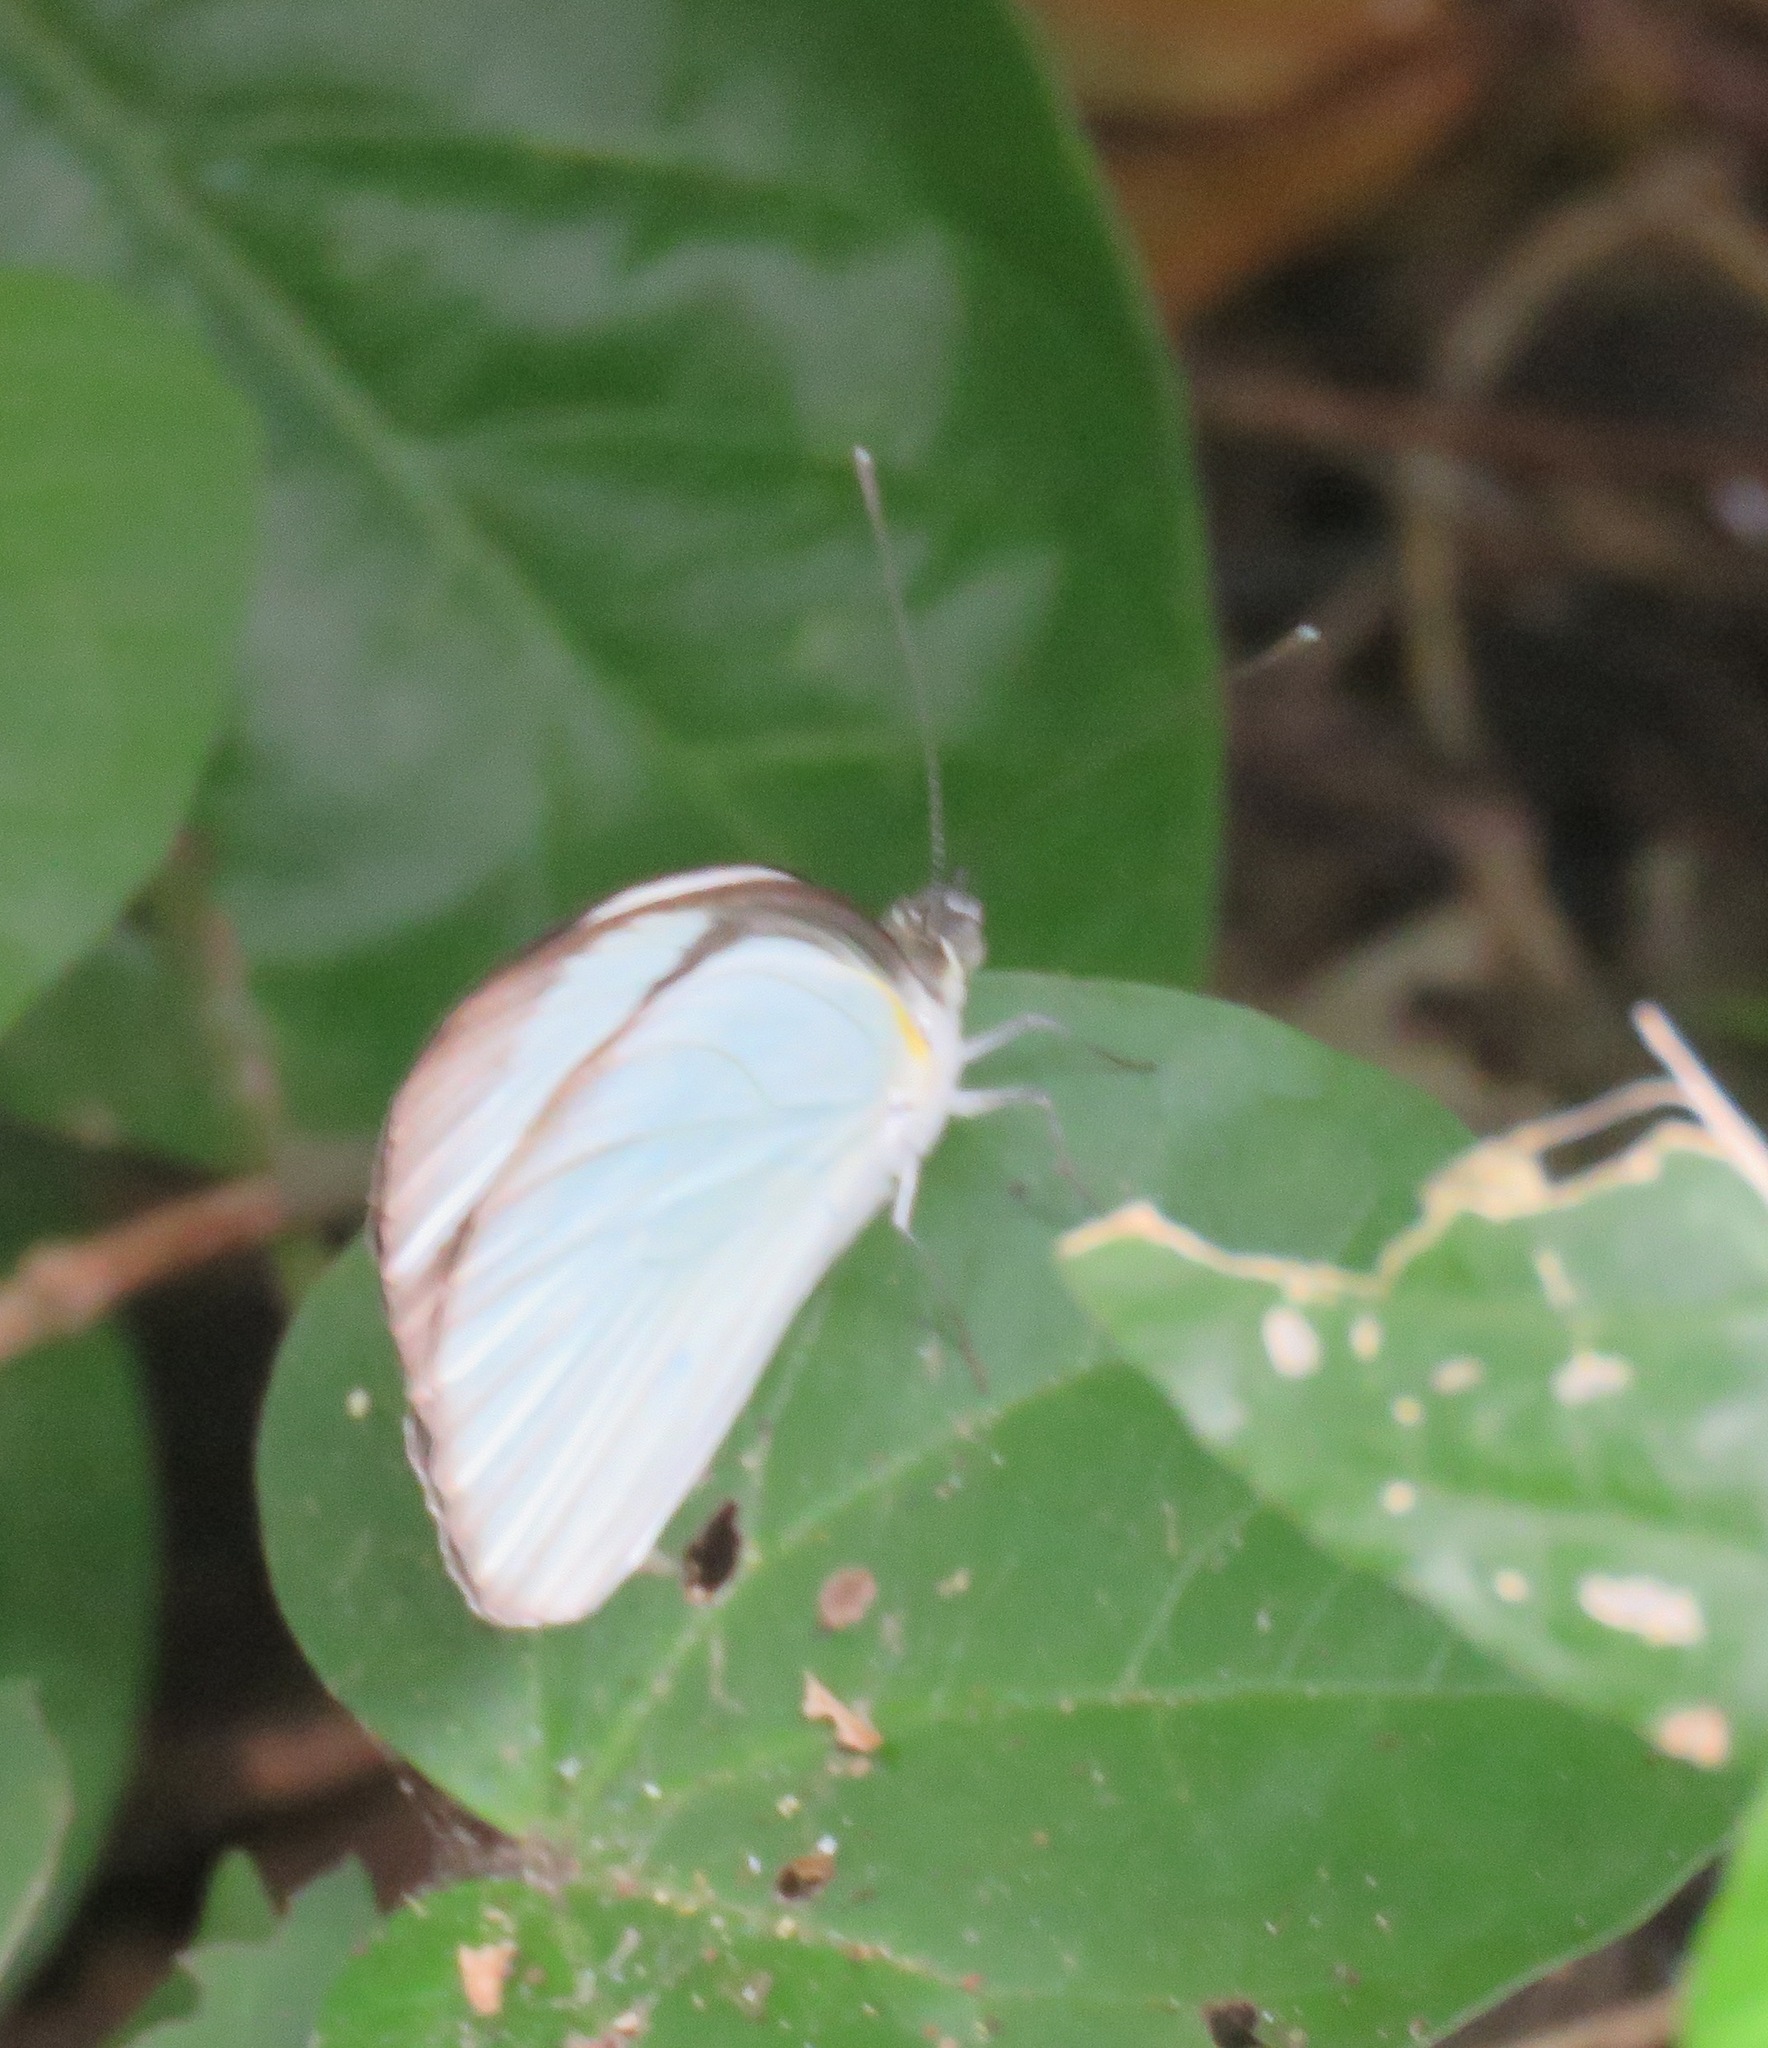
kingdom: Animalia
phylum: Arthropoda
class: Insecta
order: Lepidoptera
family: Pieridae
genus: Itaballia
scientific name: Itaballia demophile
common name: Cross-barred white
